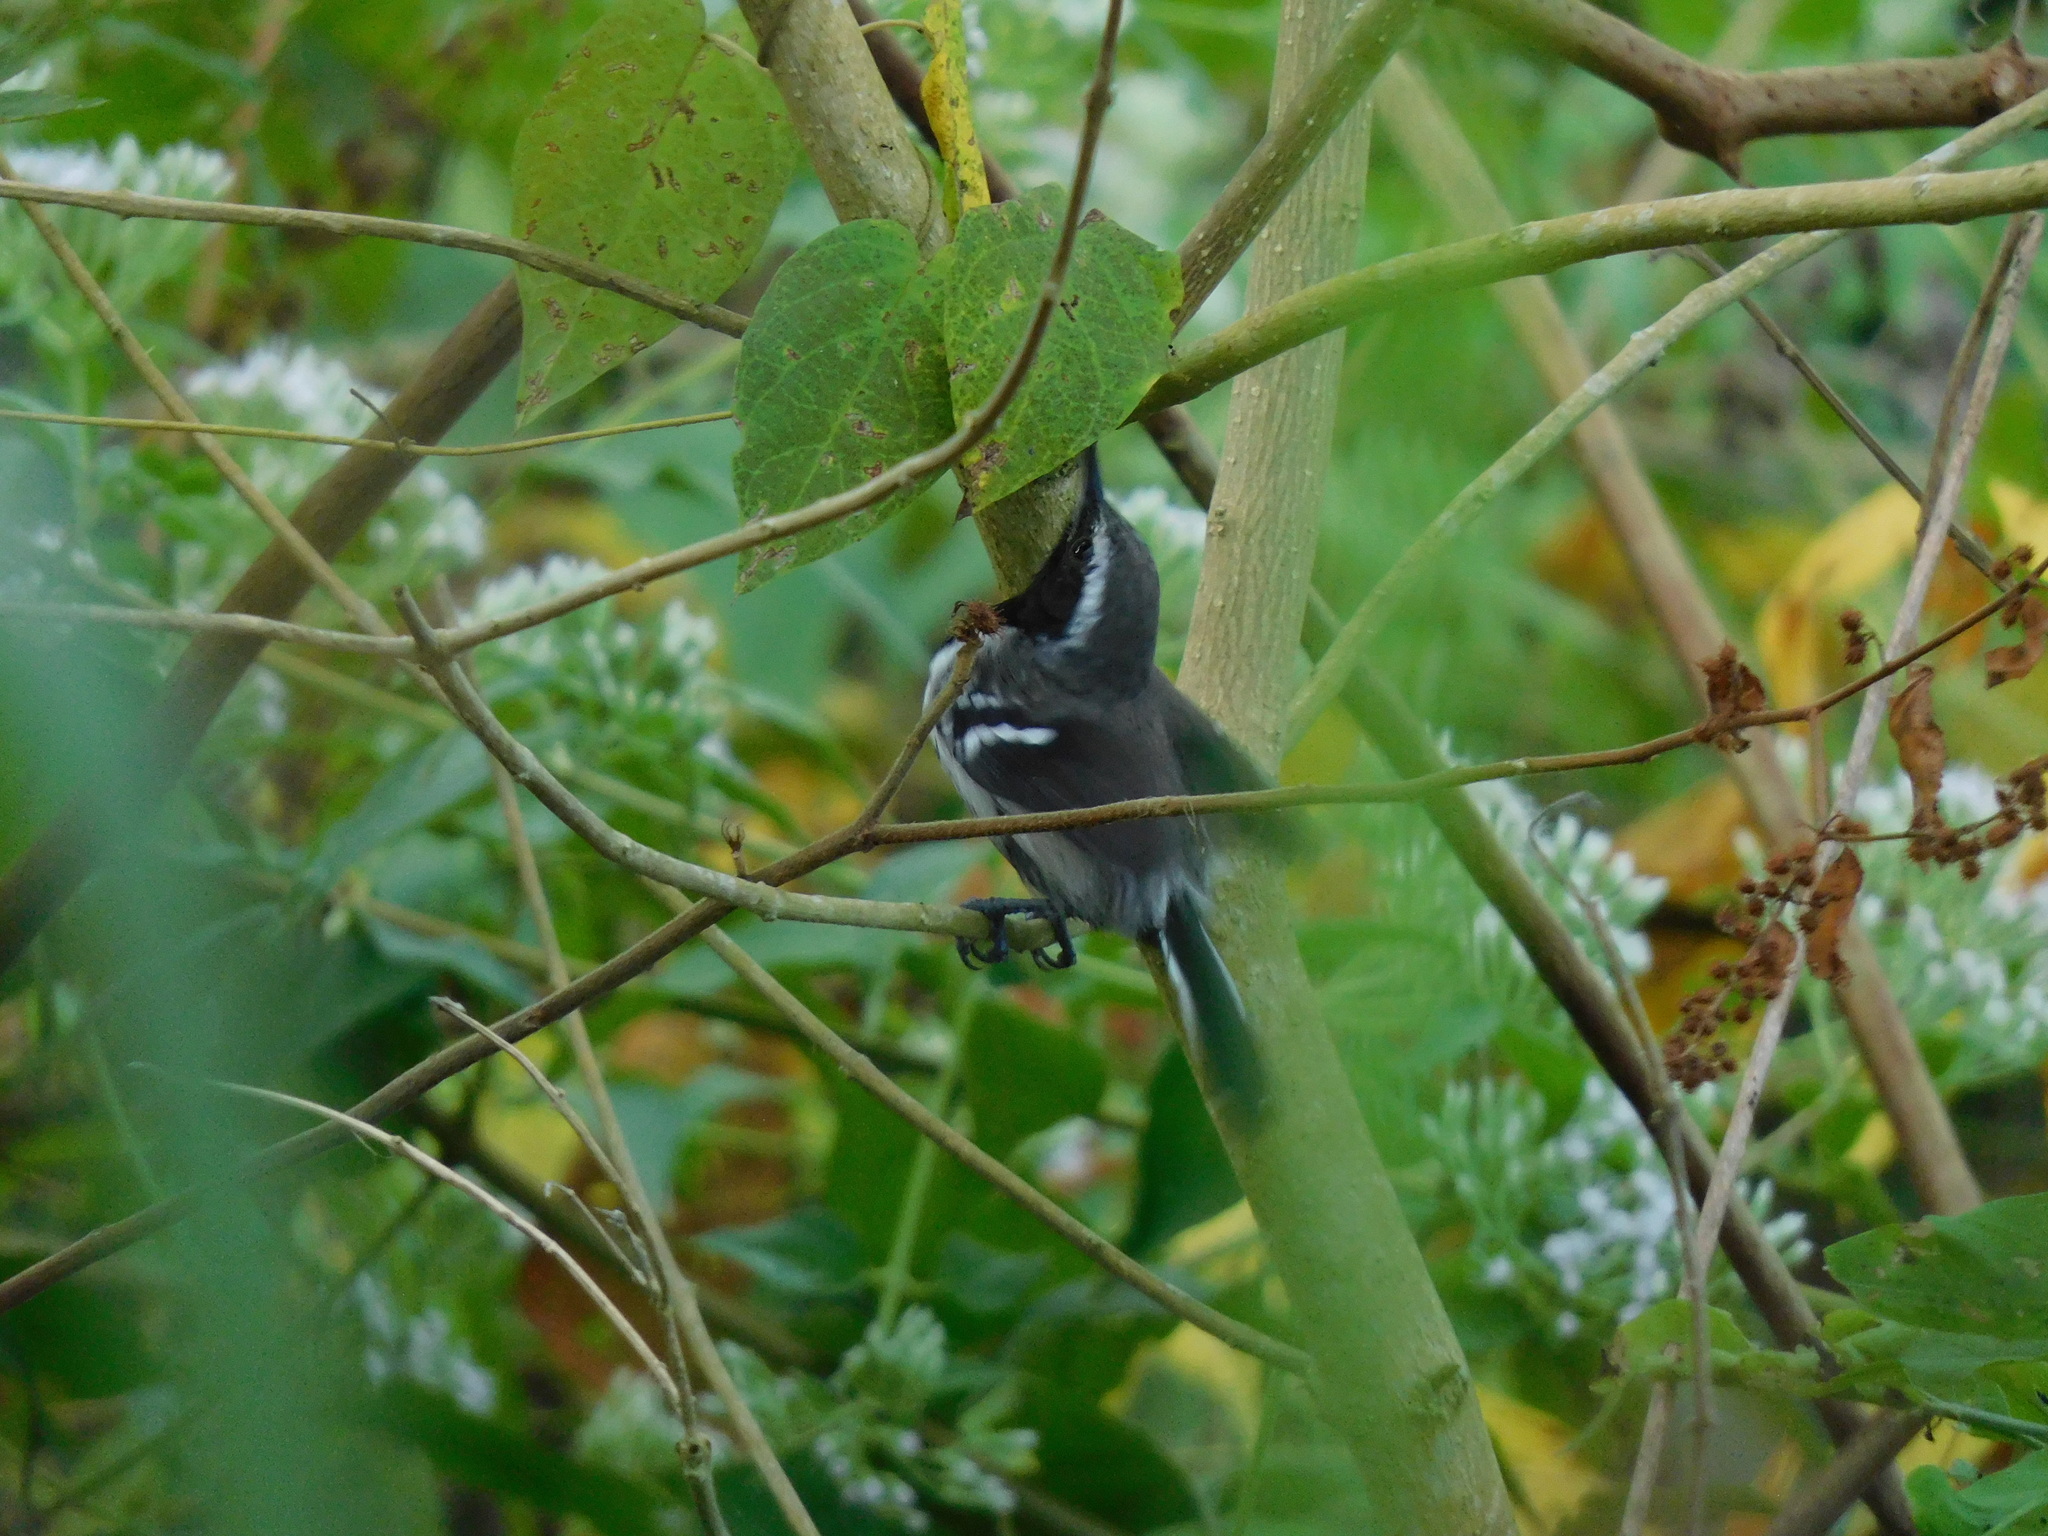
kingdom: Animalia
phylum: Chordata
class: Aves
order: Passeriformes
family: Thamnophilidae
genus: Formicivora
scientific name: Formicivora intermedia
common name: Northern white-fringed antwren
